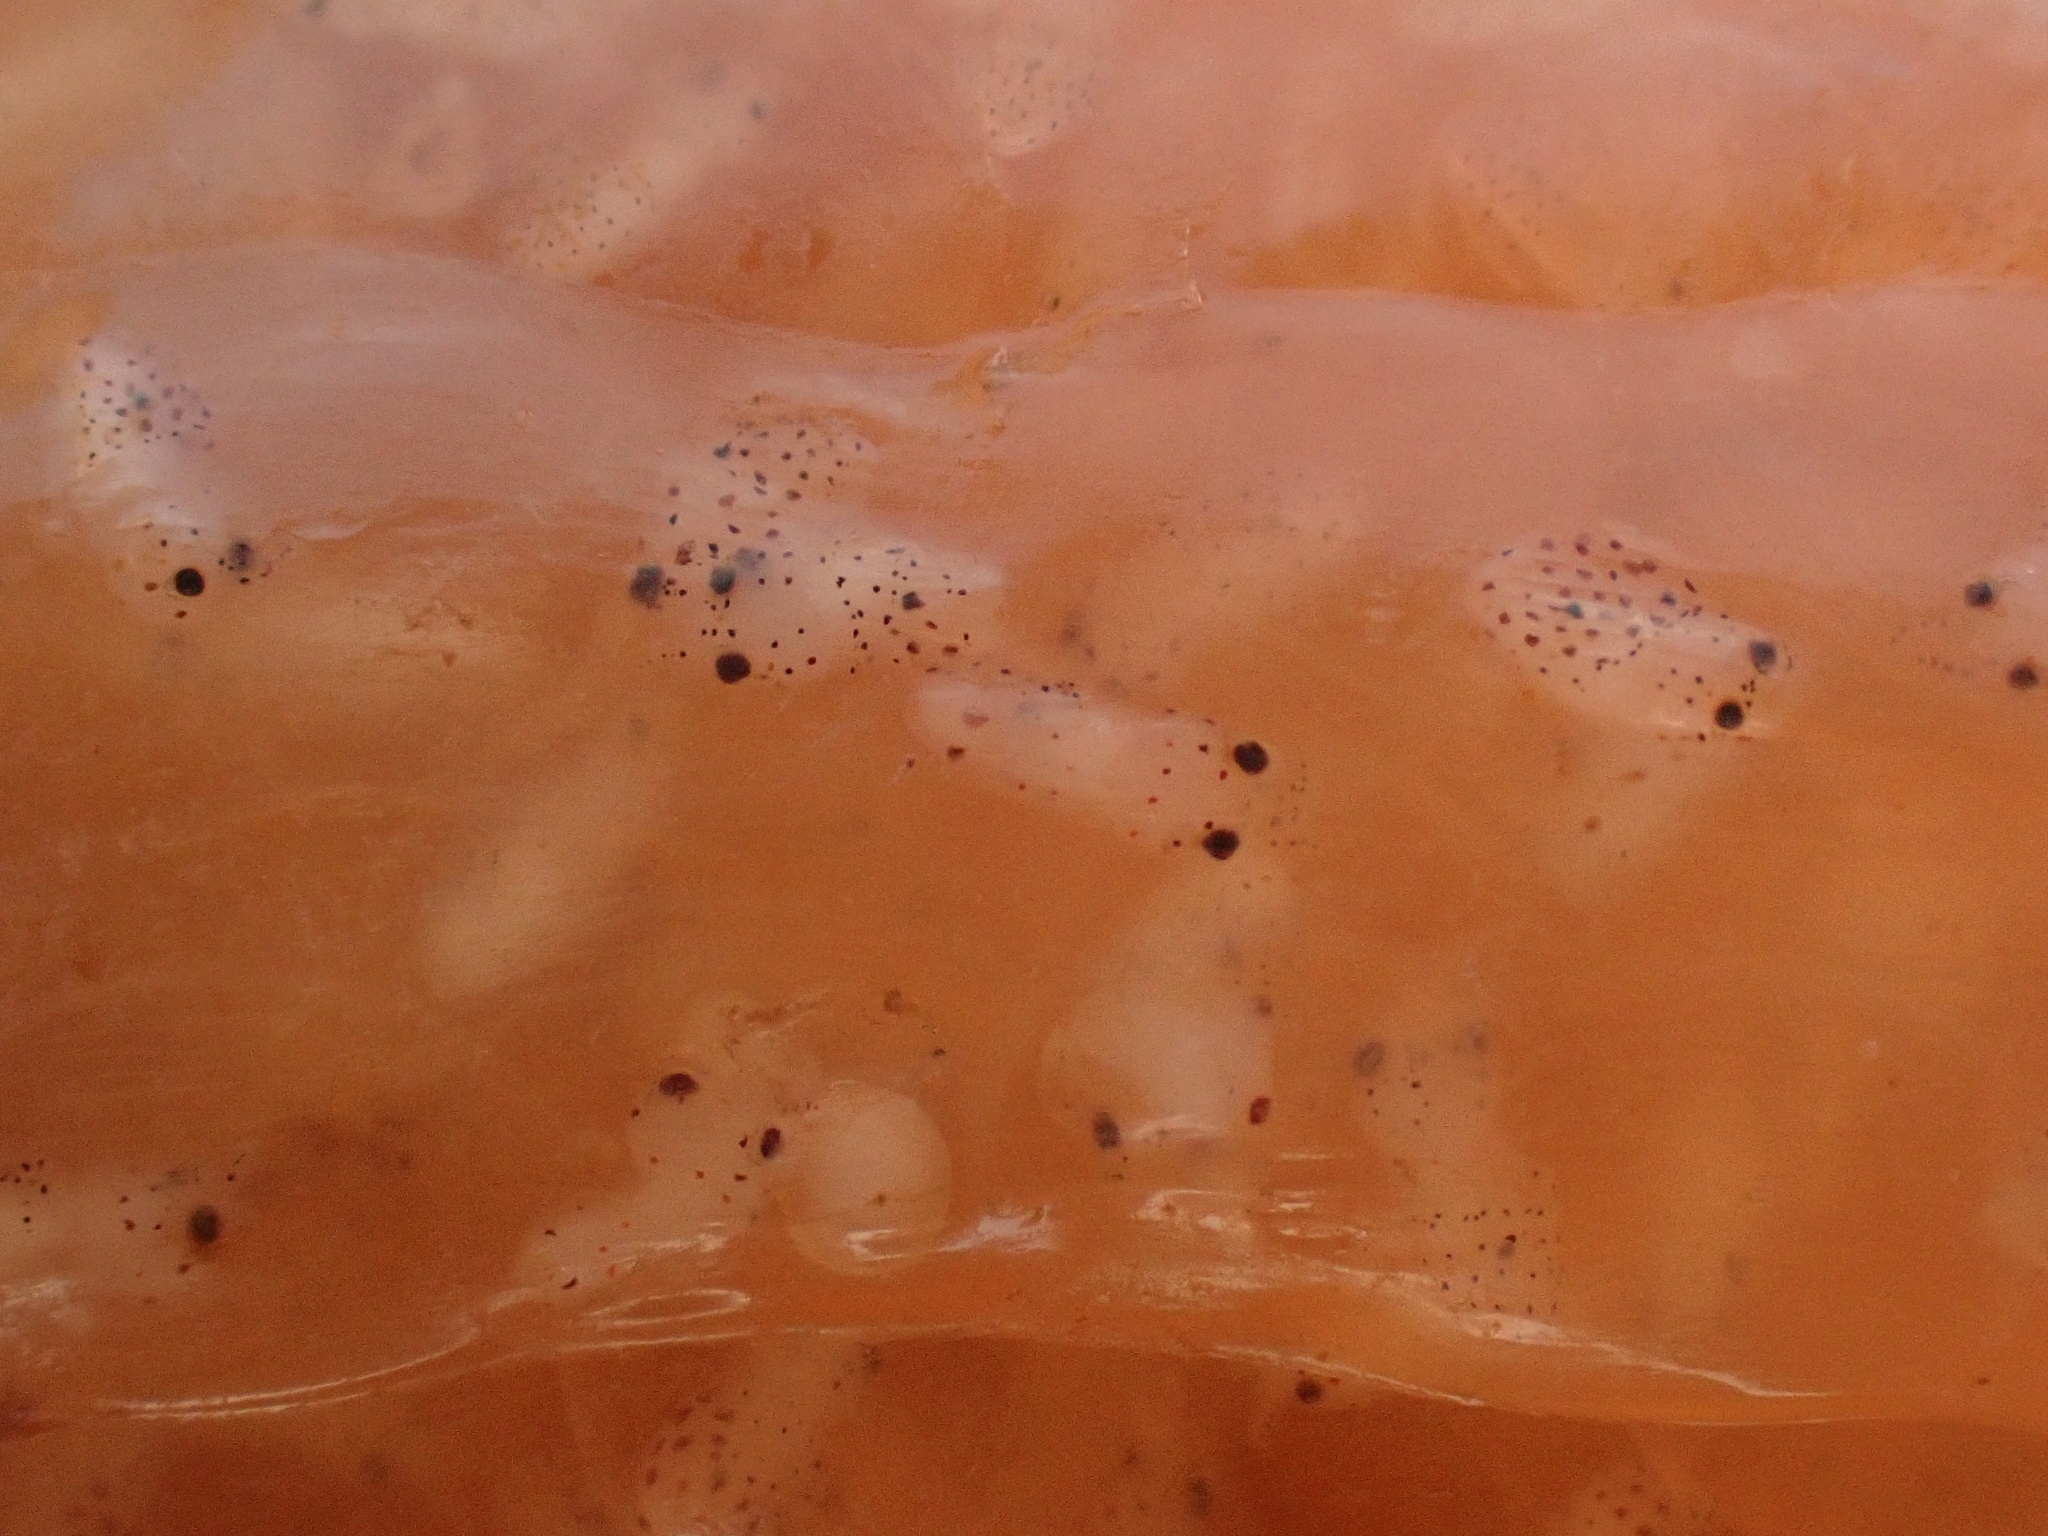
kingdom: Animalia
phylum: Mollusca
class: Cephalopoda
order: Myopsida
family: Loliginidae
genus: Doryteuthis
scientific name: Doryteuthis pealeii
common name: Long-finned inshore squid
